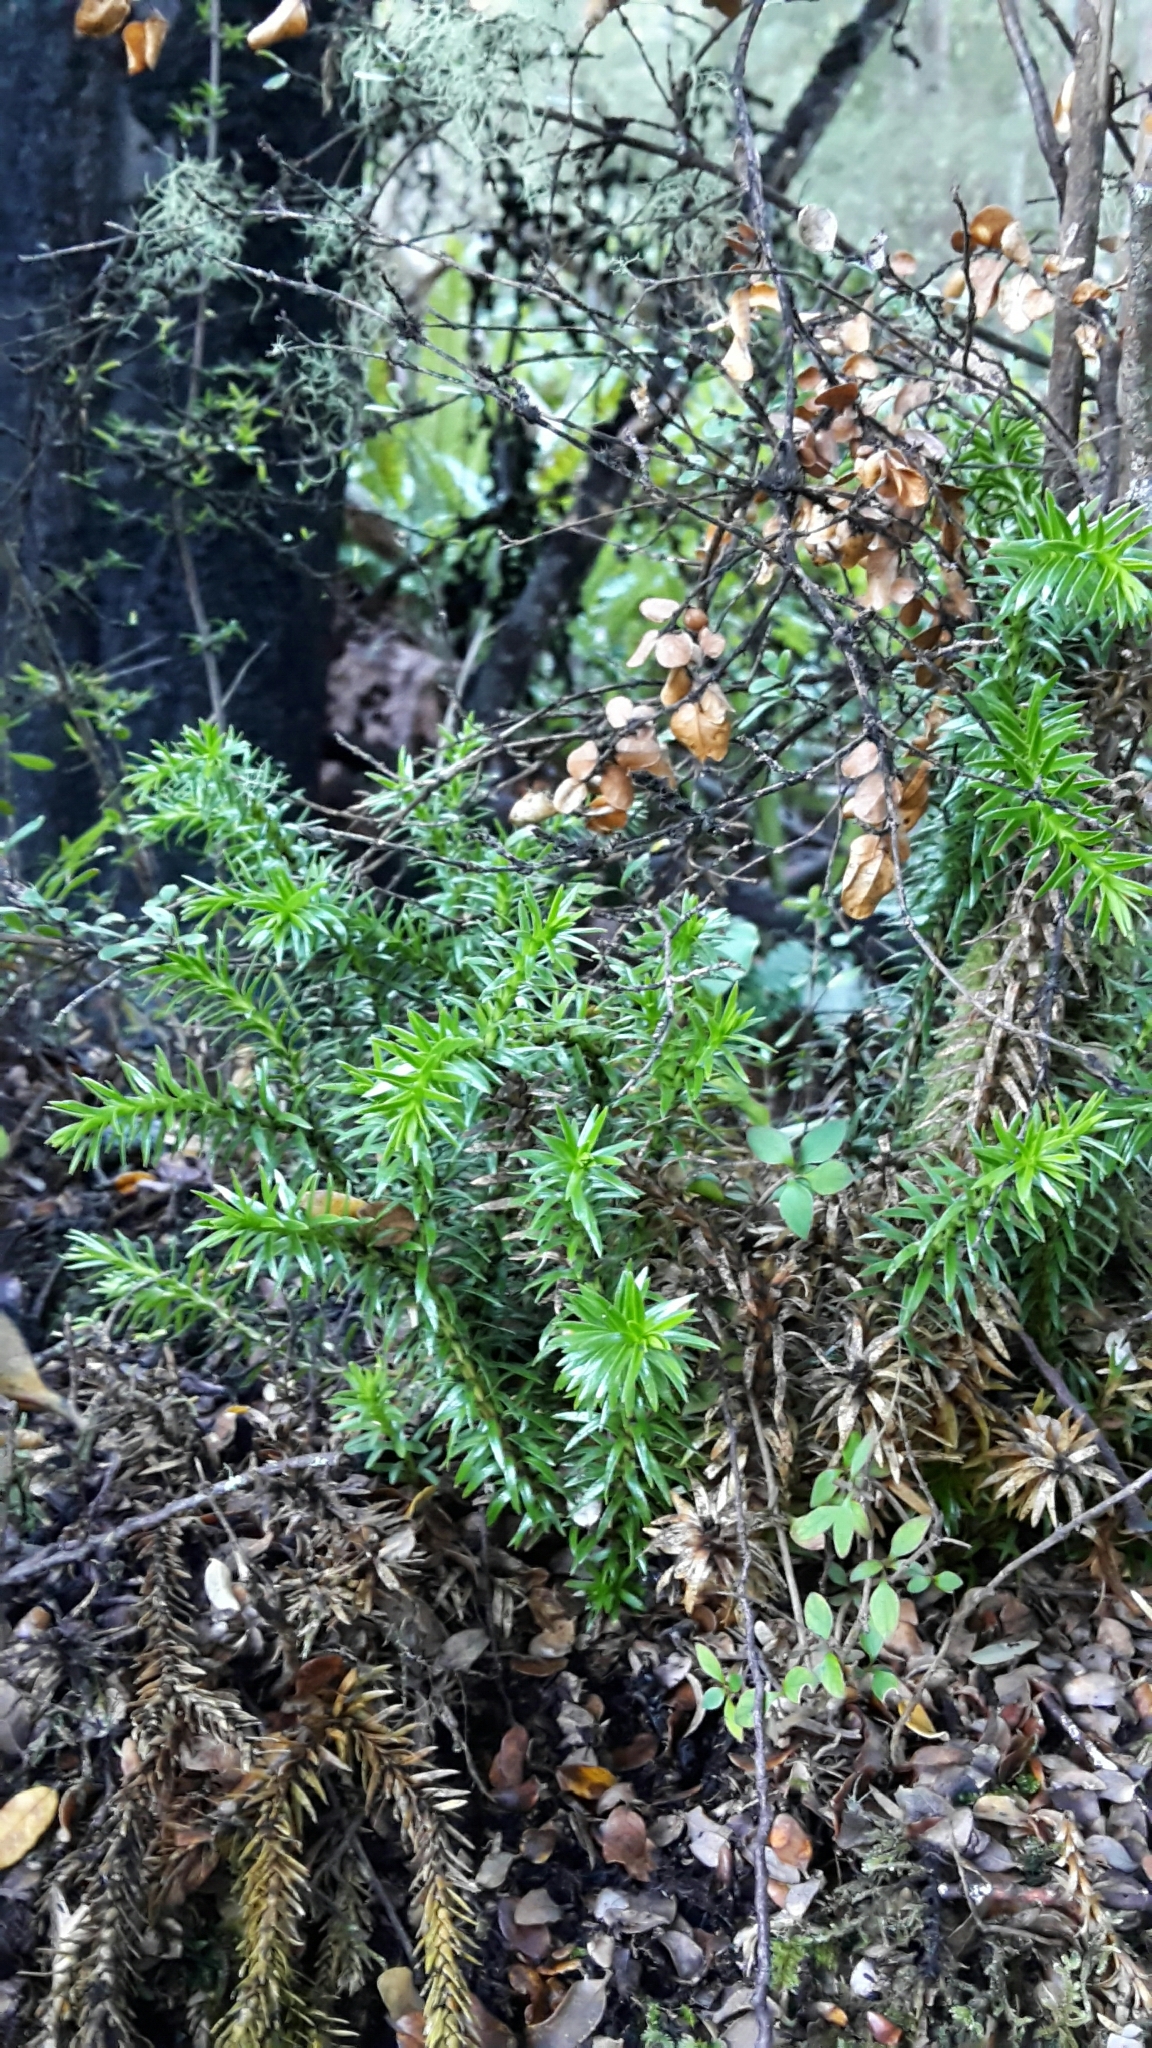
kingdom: Plantae
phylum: Tracheophyta
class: Lycopodiopsida
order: Lycopodiales
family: Lycopodiaceae
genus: Phlegmariurus
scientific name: Phlegmariurus varius
